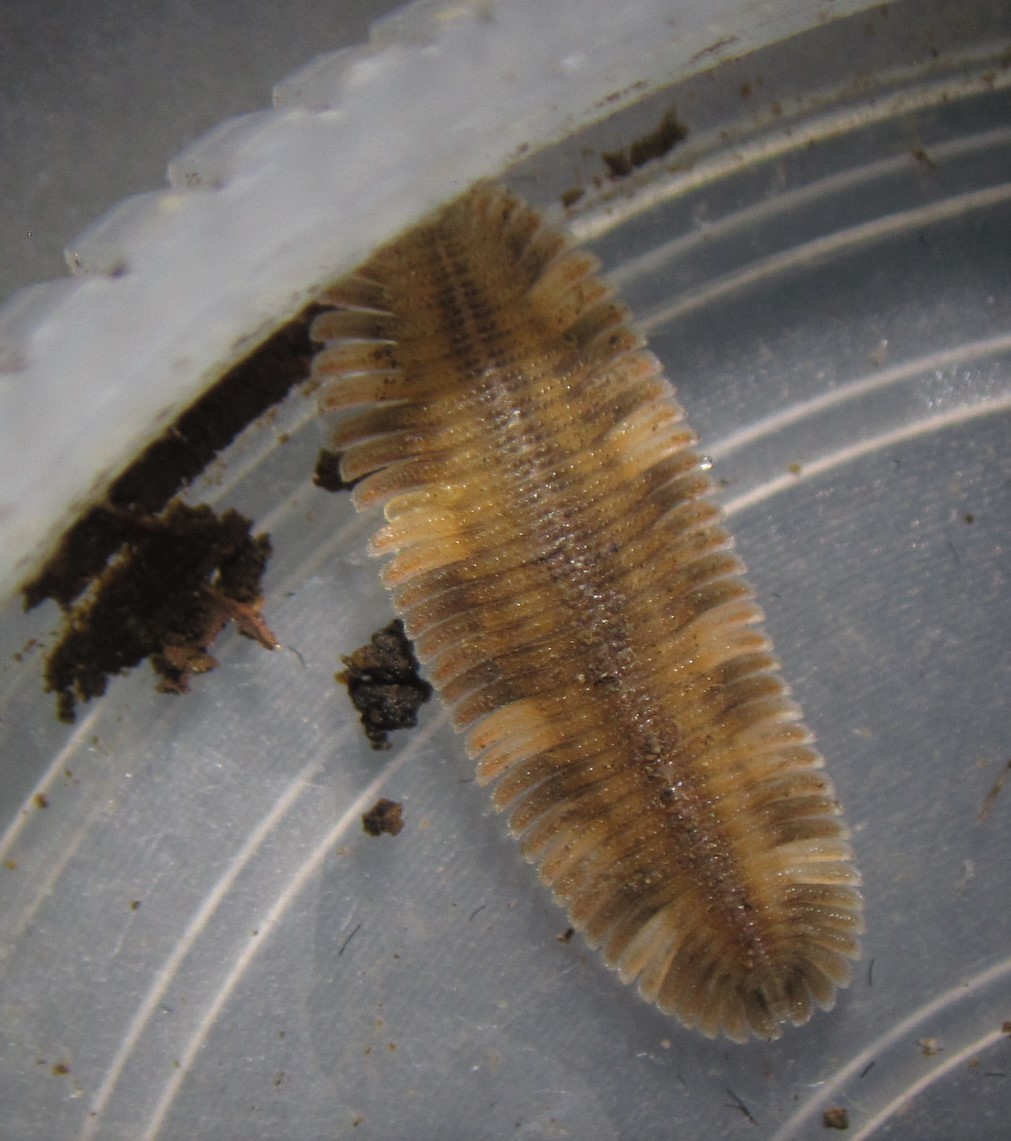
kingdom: Animalia
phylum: Arthropoda
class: Diplopoda
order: Platydesmida
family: Platydesmidae
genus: Platydesmus
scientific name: Platydesmus mexicanus
